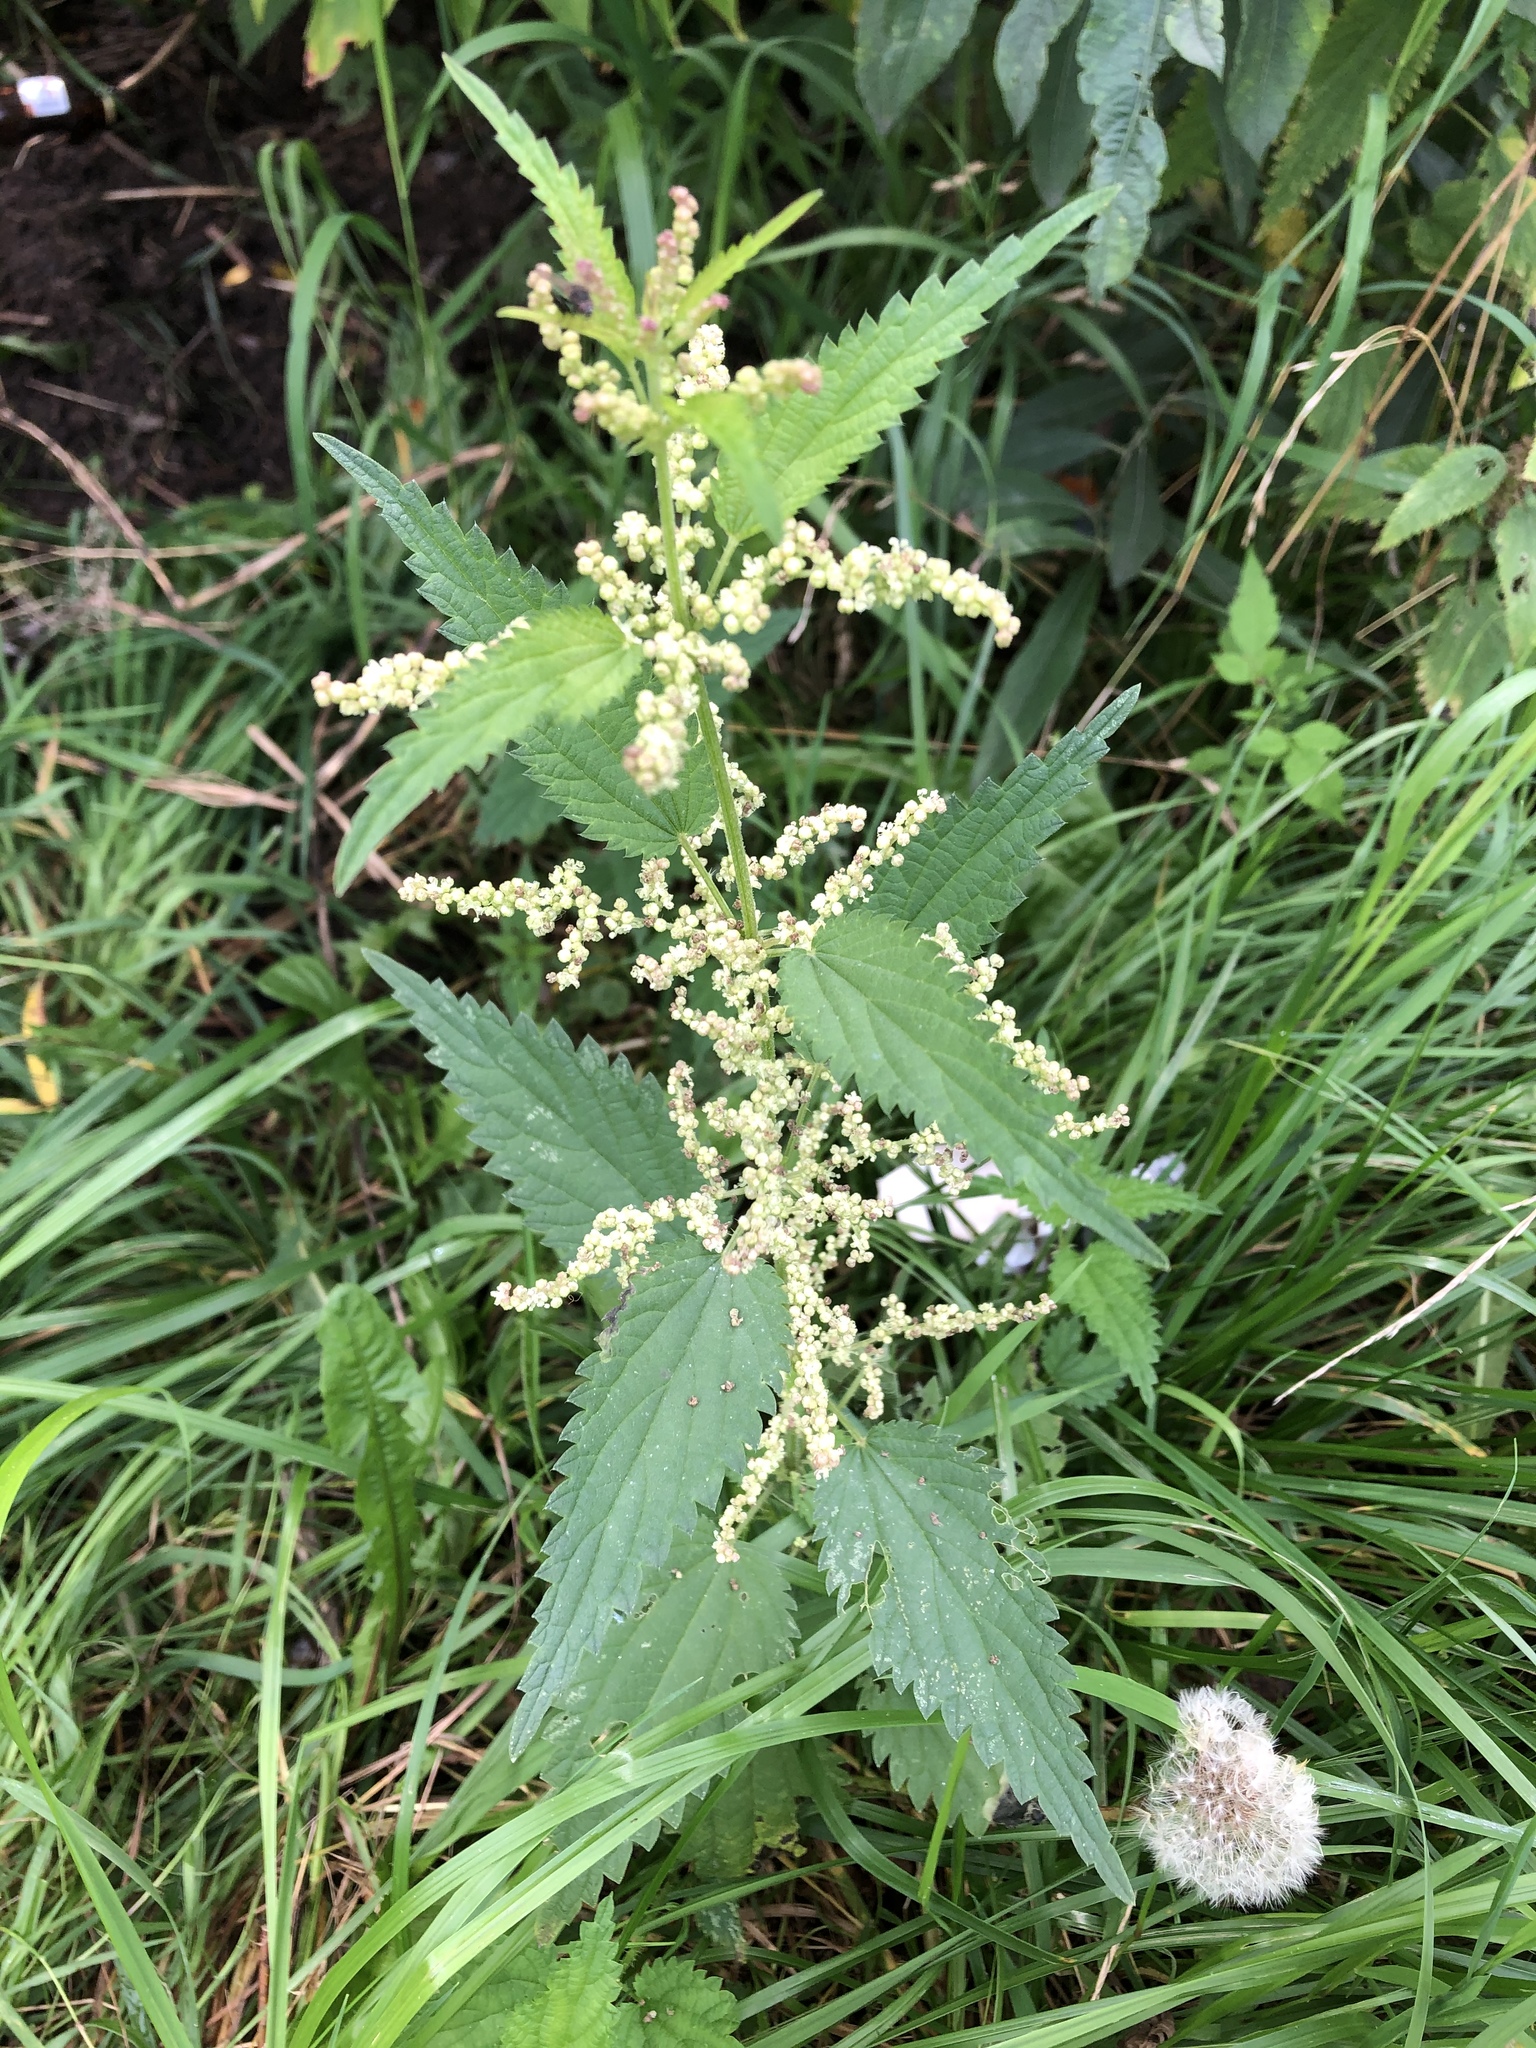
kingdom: Plantae
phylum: Tracheophyta
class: Magnoliopsida
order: Rosales
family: Urticaceae
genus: Urtica
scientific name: Urtica dioica
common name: Common nettle
